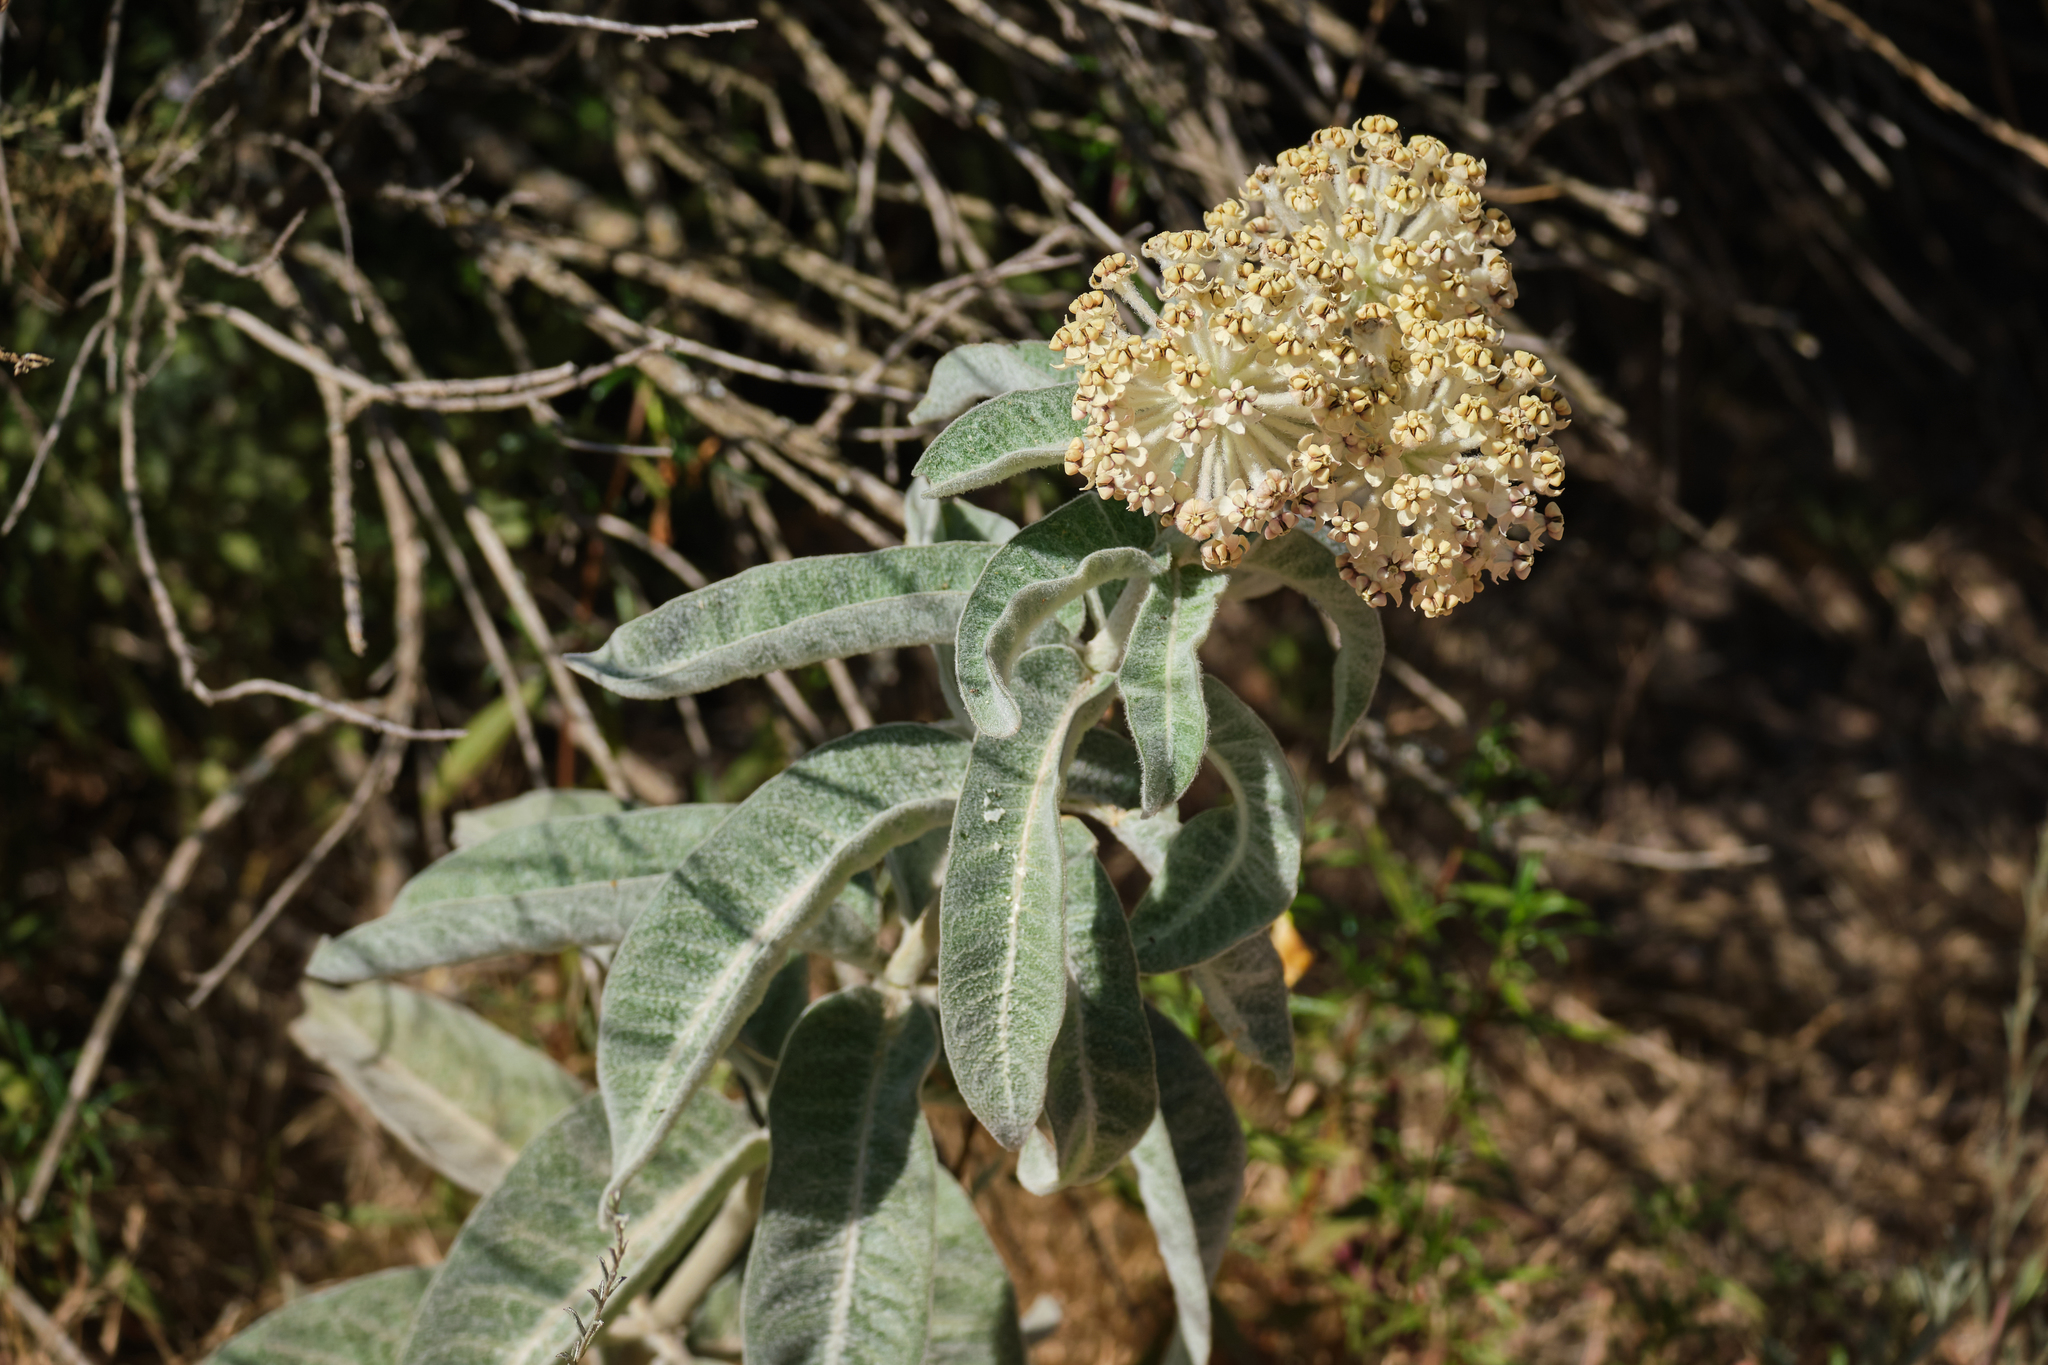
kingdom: Plantae
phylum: Tracheophyta
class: Magnoliopsida
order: Gentianales
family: Apocynaceae
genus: Asclepias
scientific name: Asclepias eriocarpa
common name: Indian milkweed
